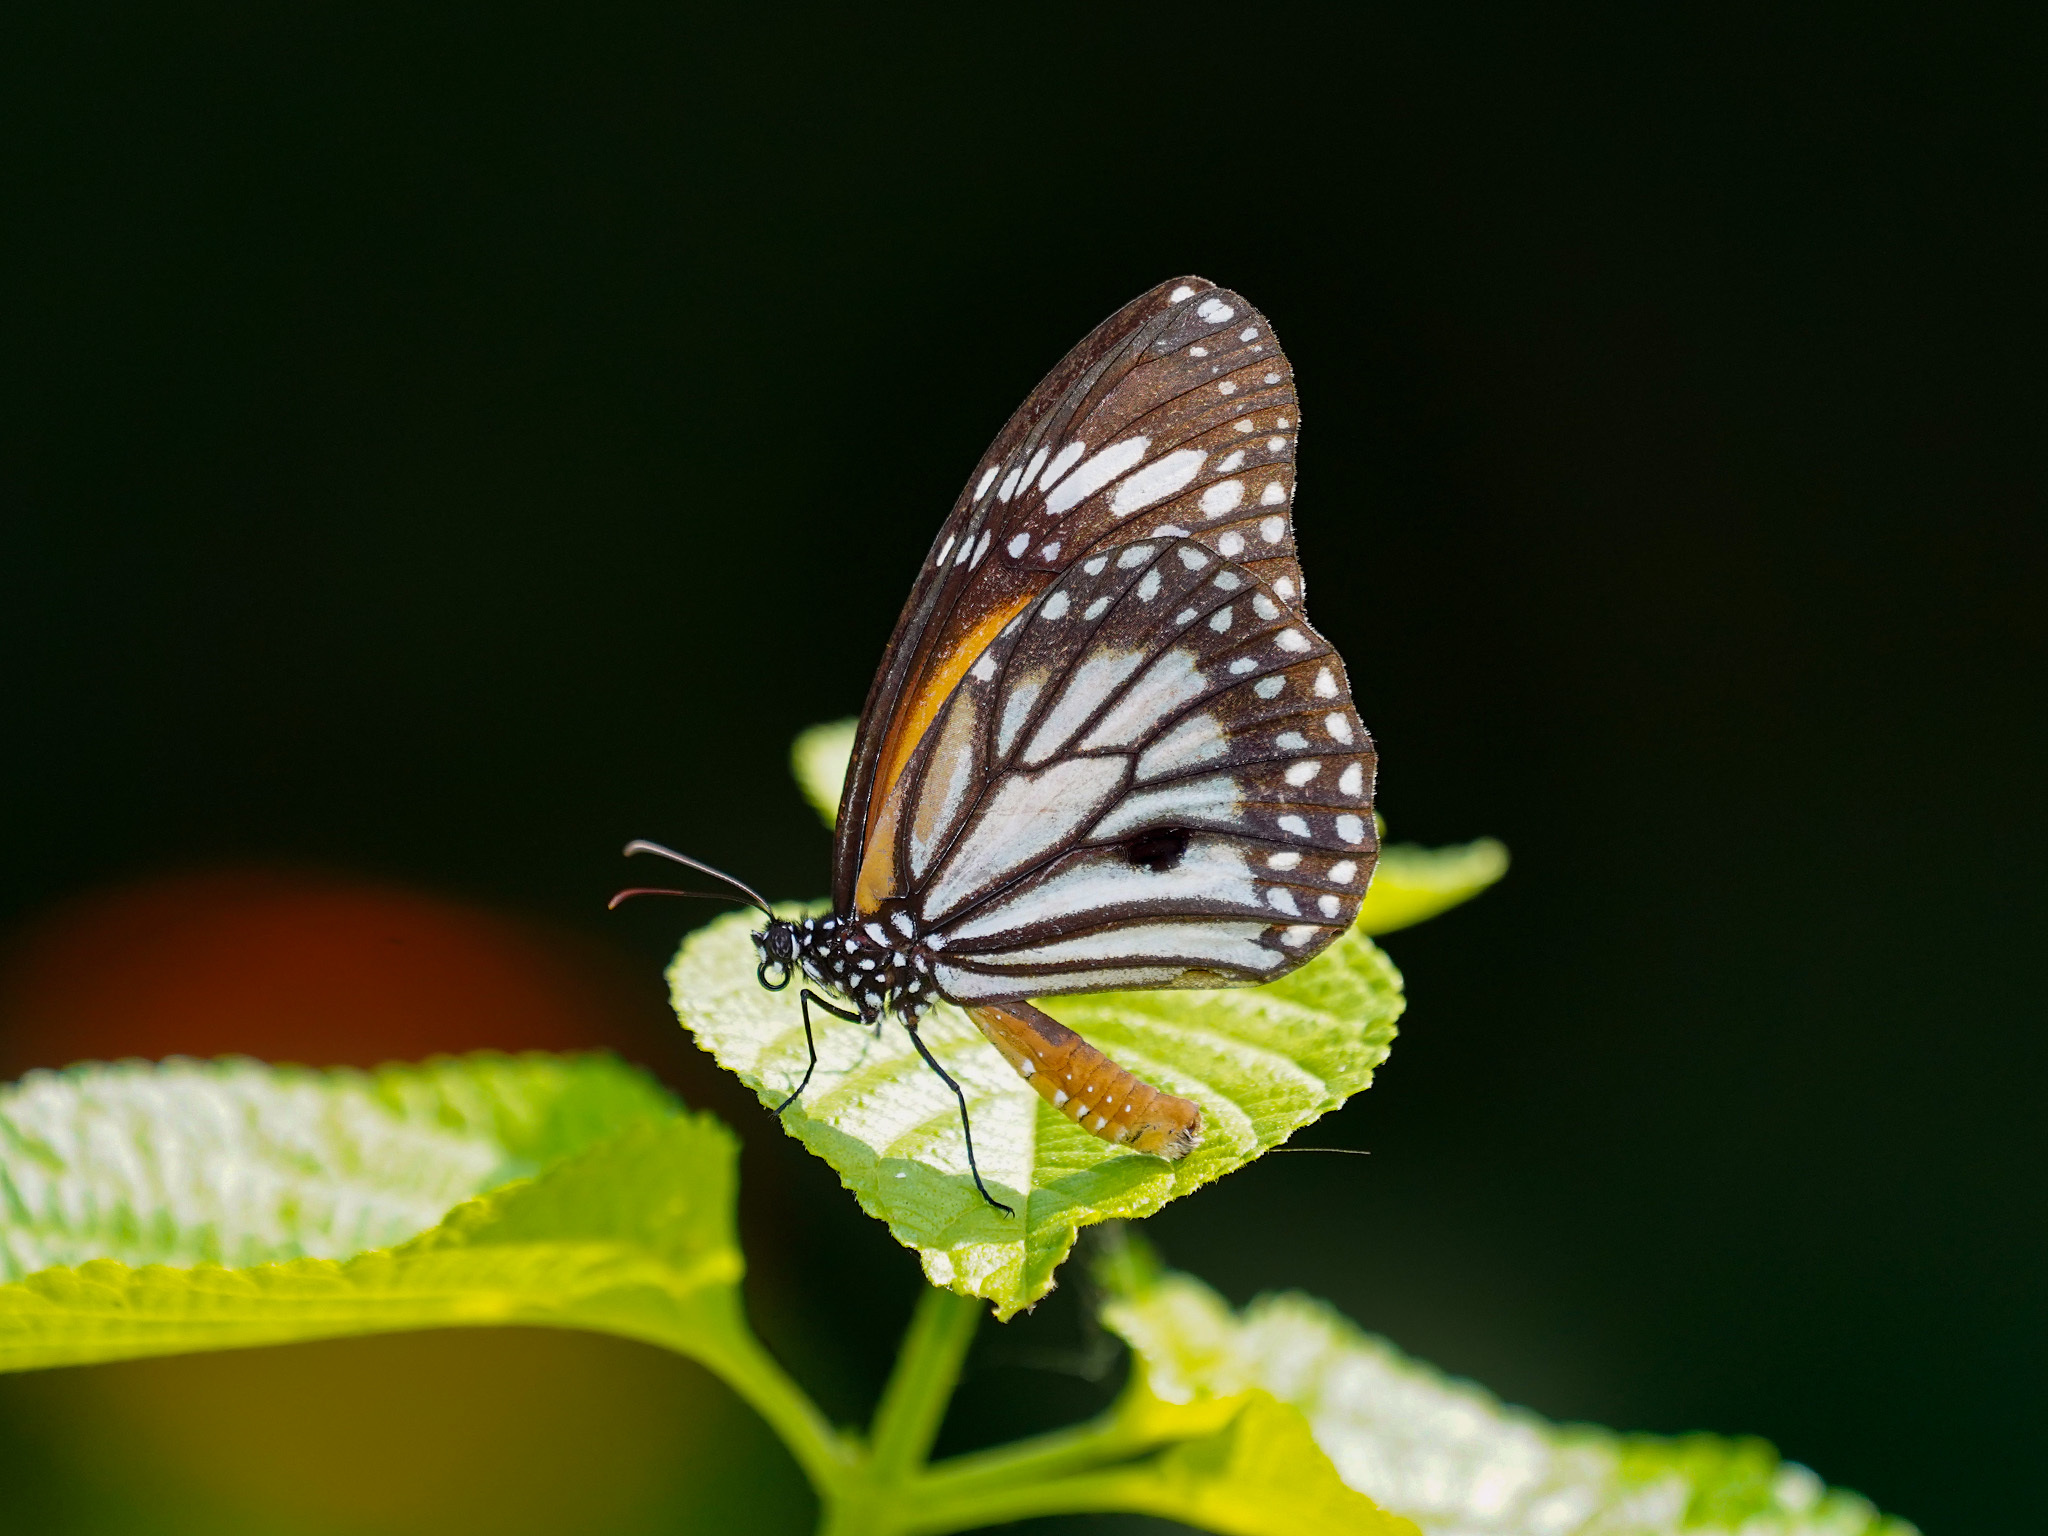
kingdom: Animalia
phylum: Arthropoda
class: Insecta
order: Lepidoptera
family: Nymphalidae
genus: Danaus
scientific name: Danaus melanippus
